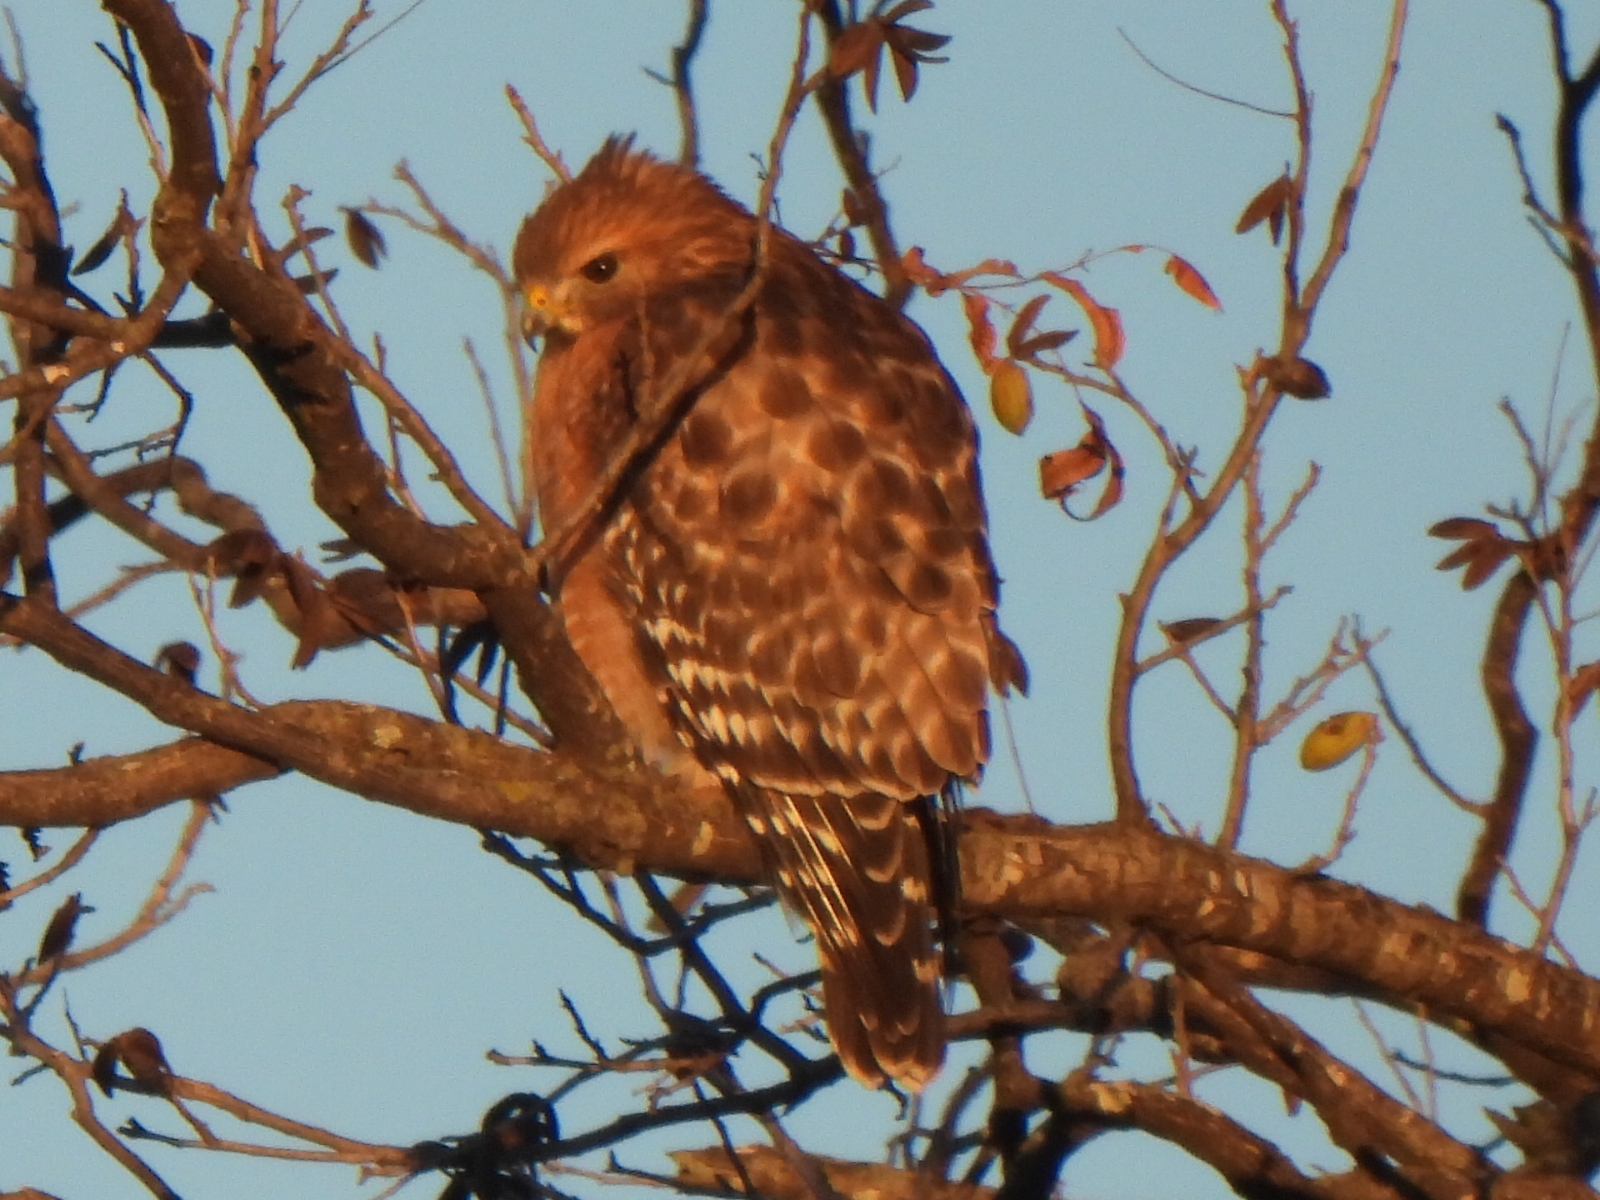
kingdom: Animalia
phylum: Chordata
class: Aves
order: Accipitriformes
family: Accipitridae
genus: Buteo
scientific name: Buteo lineatus
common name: Red-shouldered hawk
